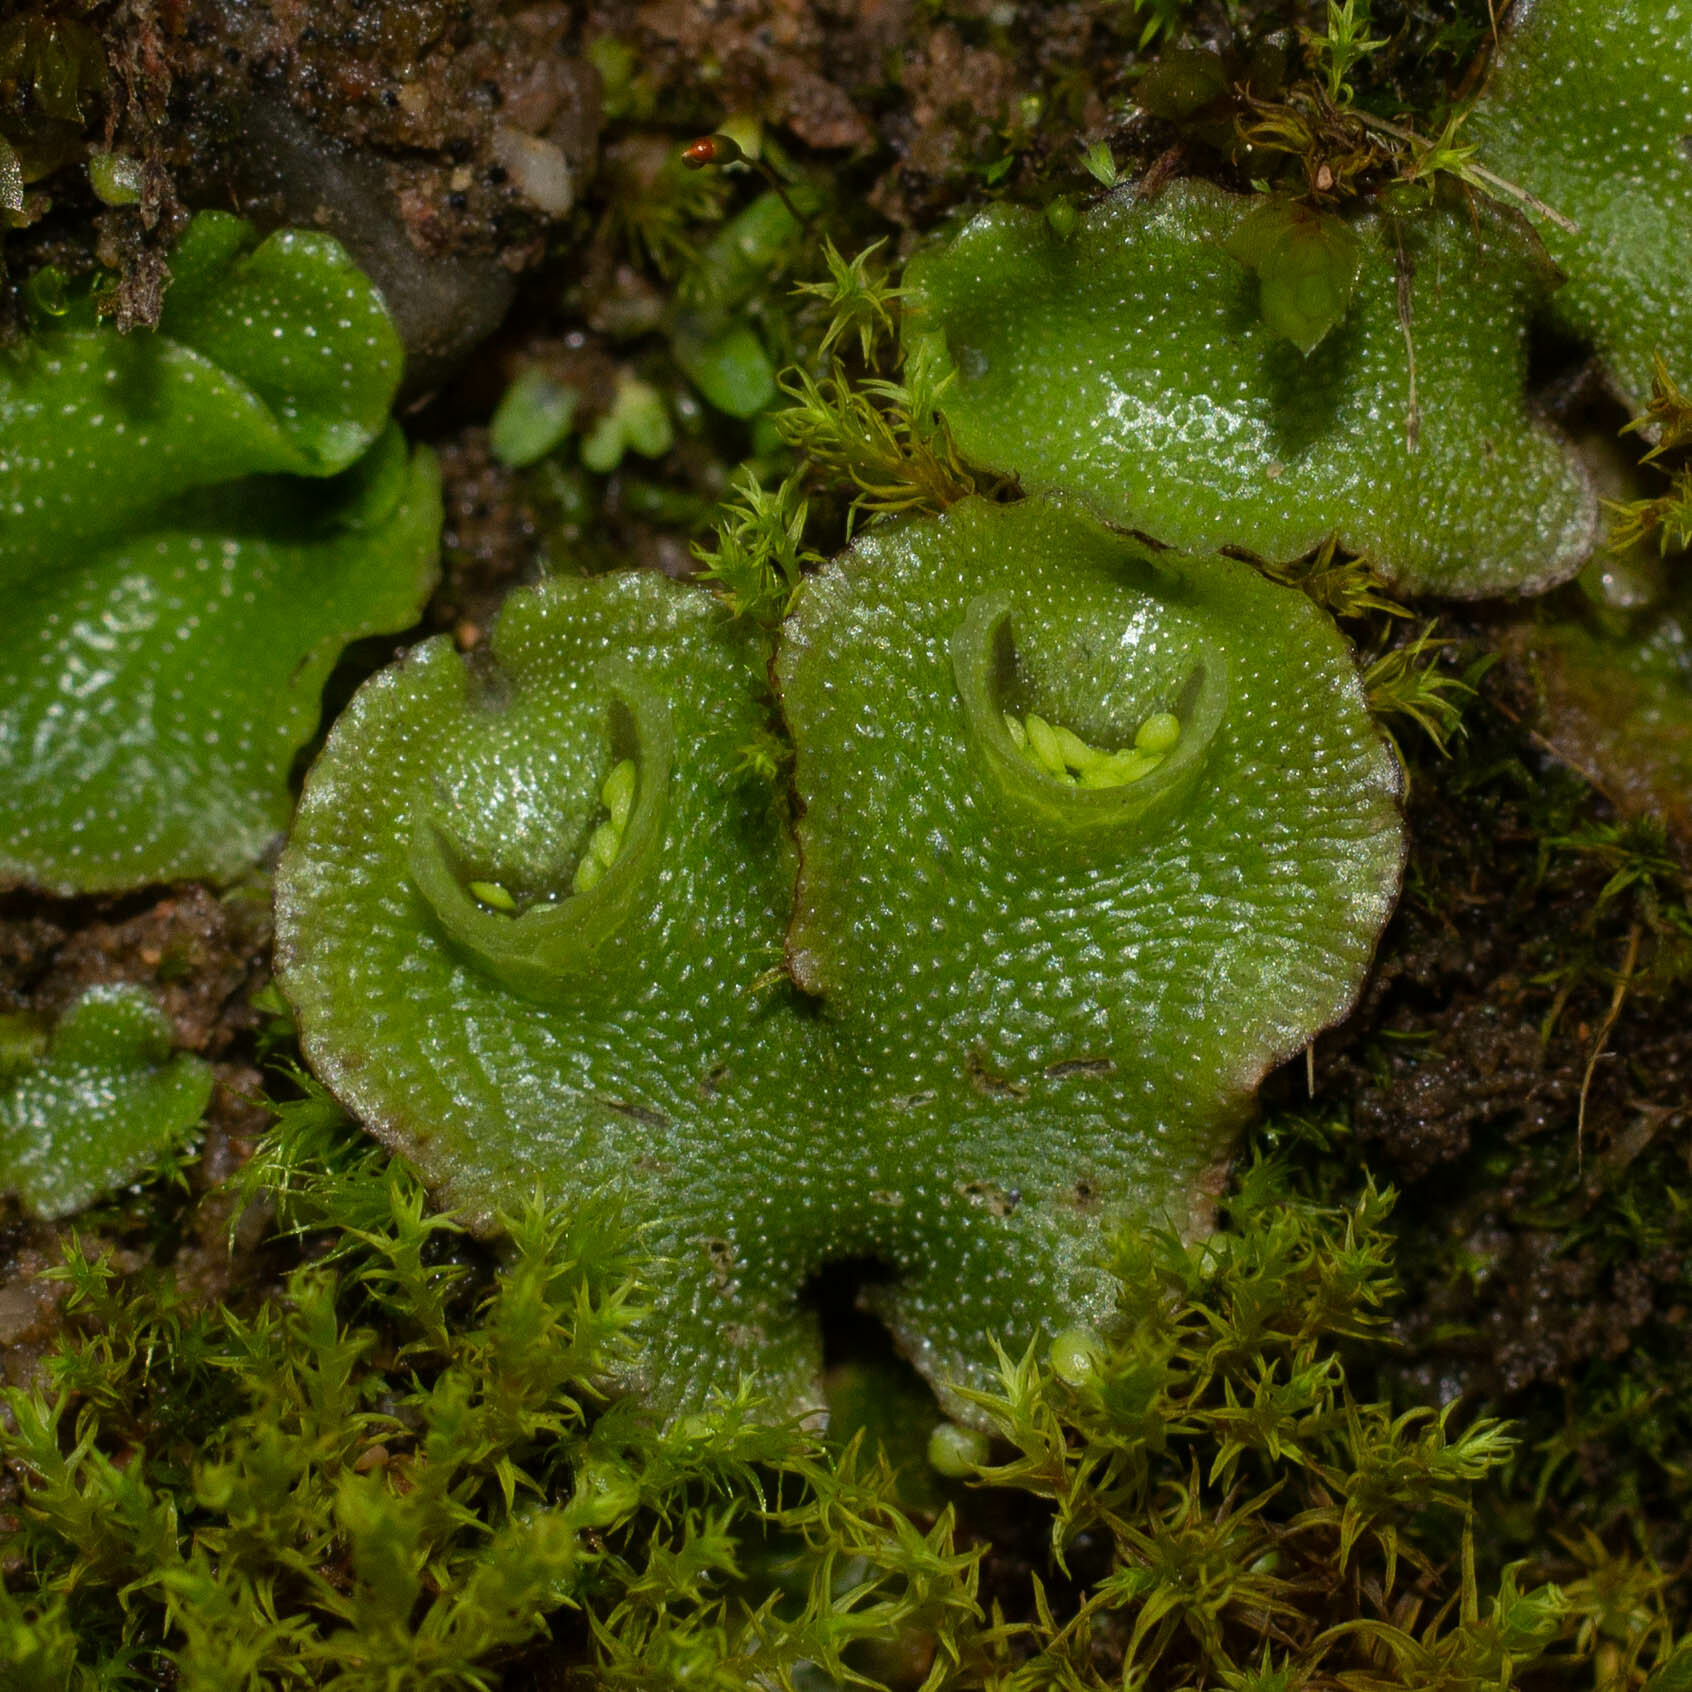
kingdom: Plantae
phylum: Marchantiophyta
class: Marchantiopsida
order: Lunulariales
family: Lunulariaceae
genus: Lunularia
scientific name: Lunularia cruciata
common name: Crescent-cup liverwort
